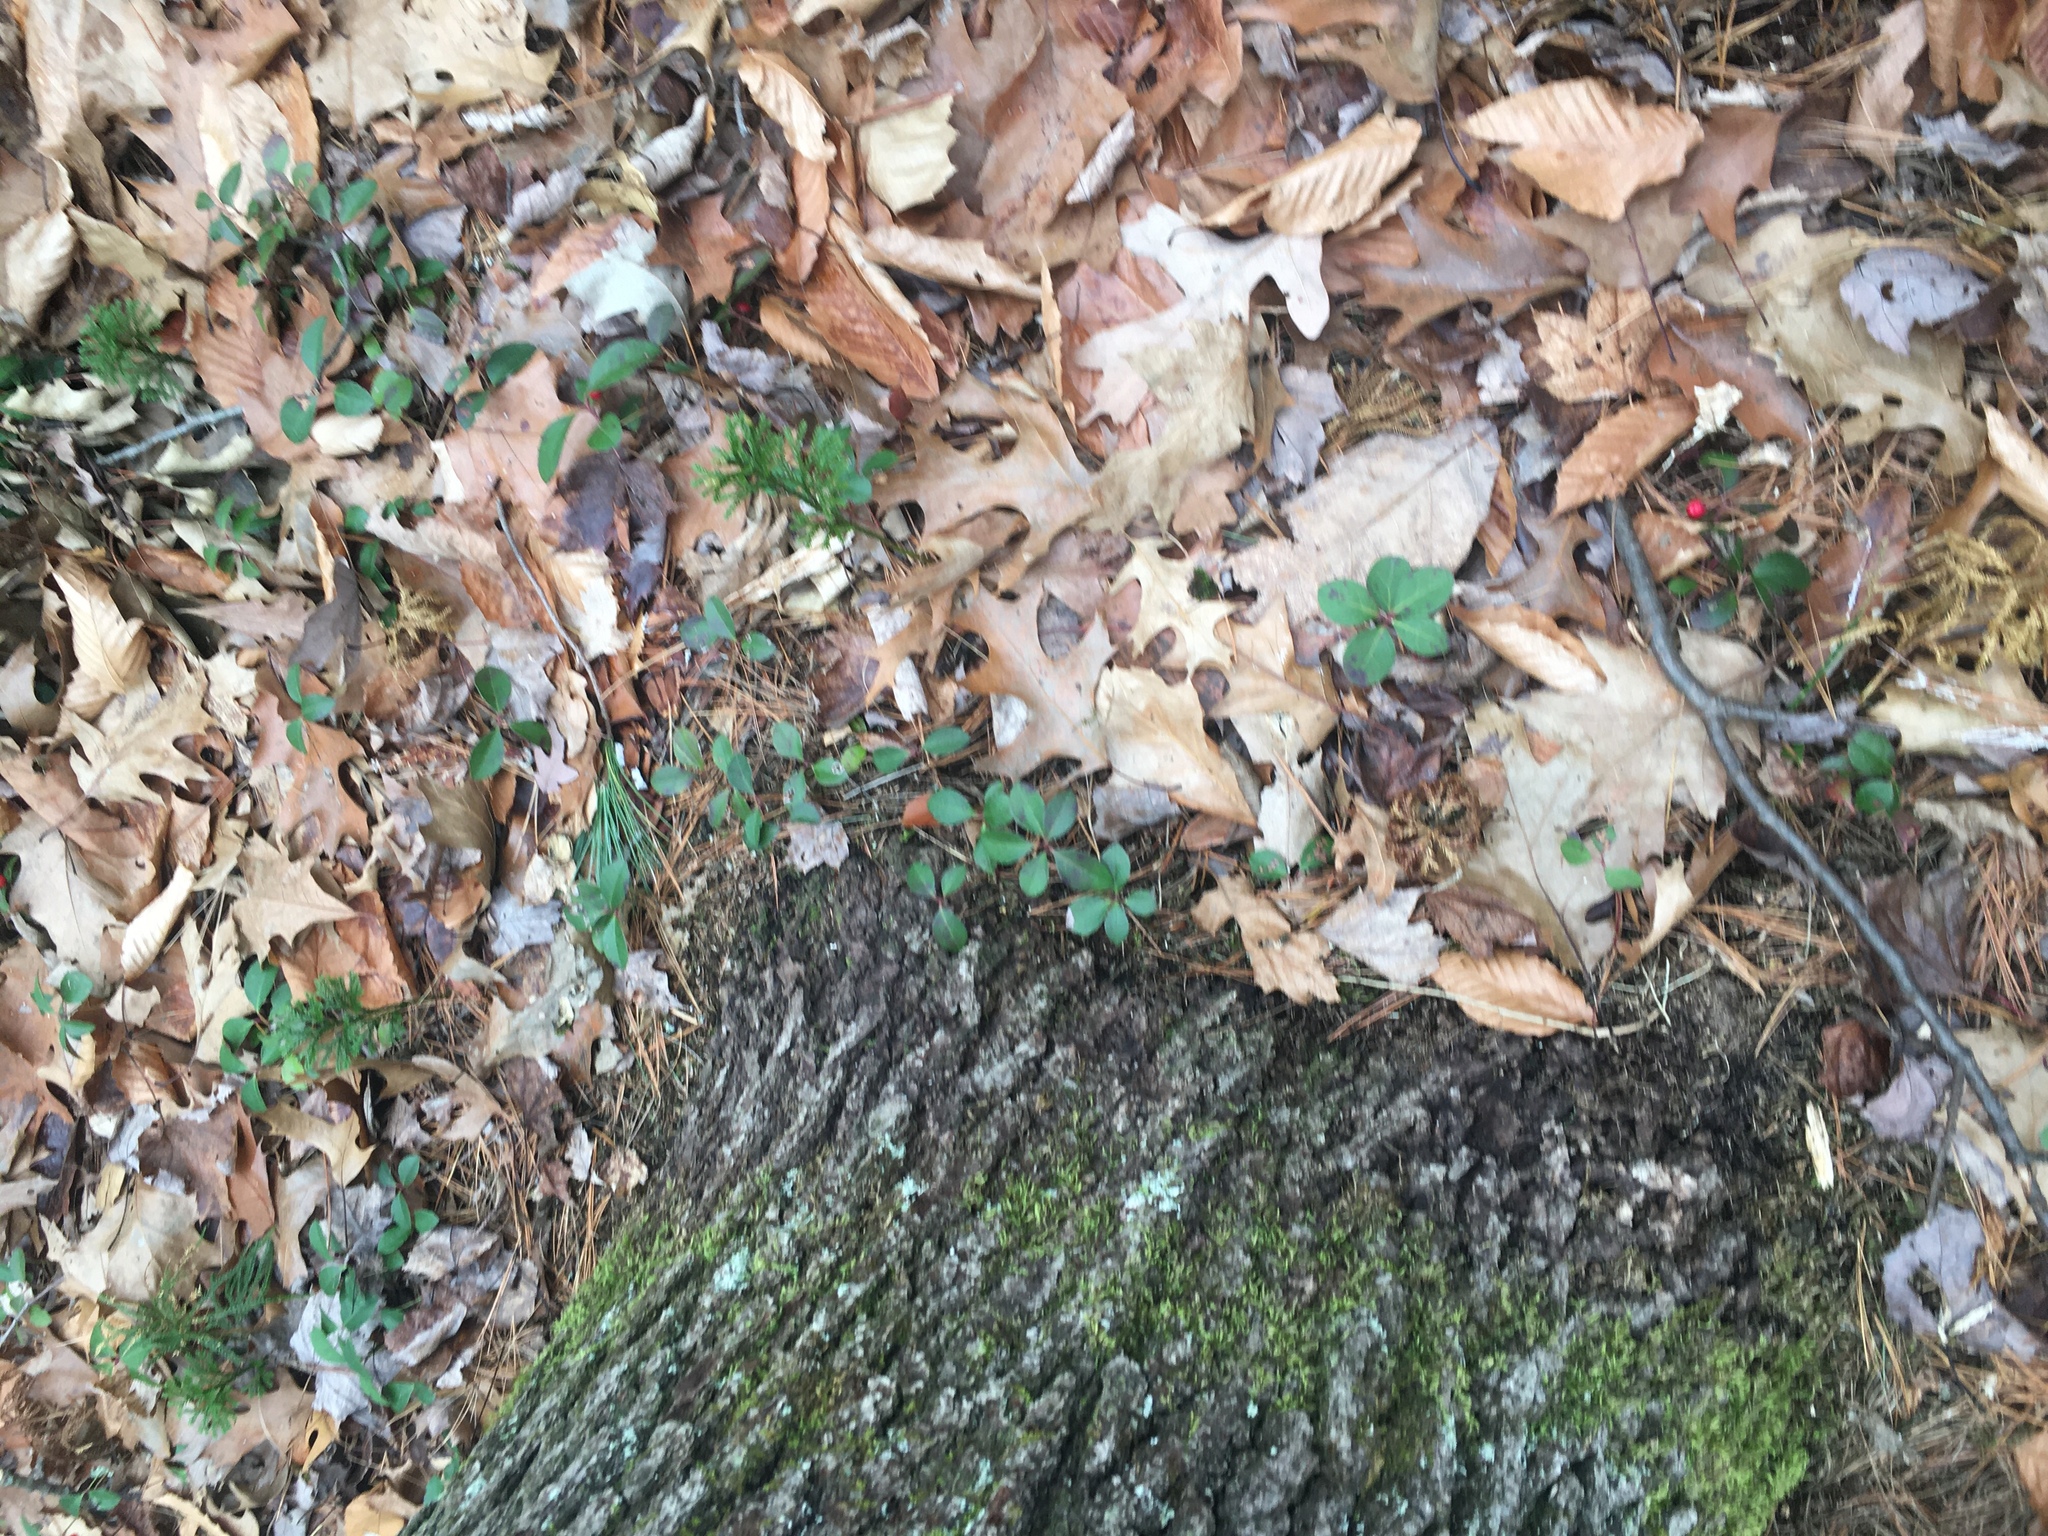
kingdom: Plantae
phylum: Tracheophyta
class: Magnoliopsida
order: Ericales
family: Ericaceae
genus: Gaultheria
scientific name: Gaultheria procumbens
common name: Checkerberry
